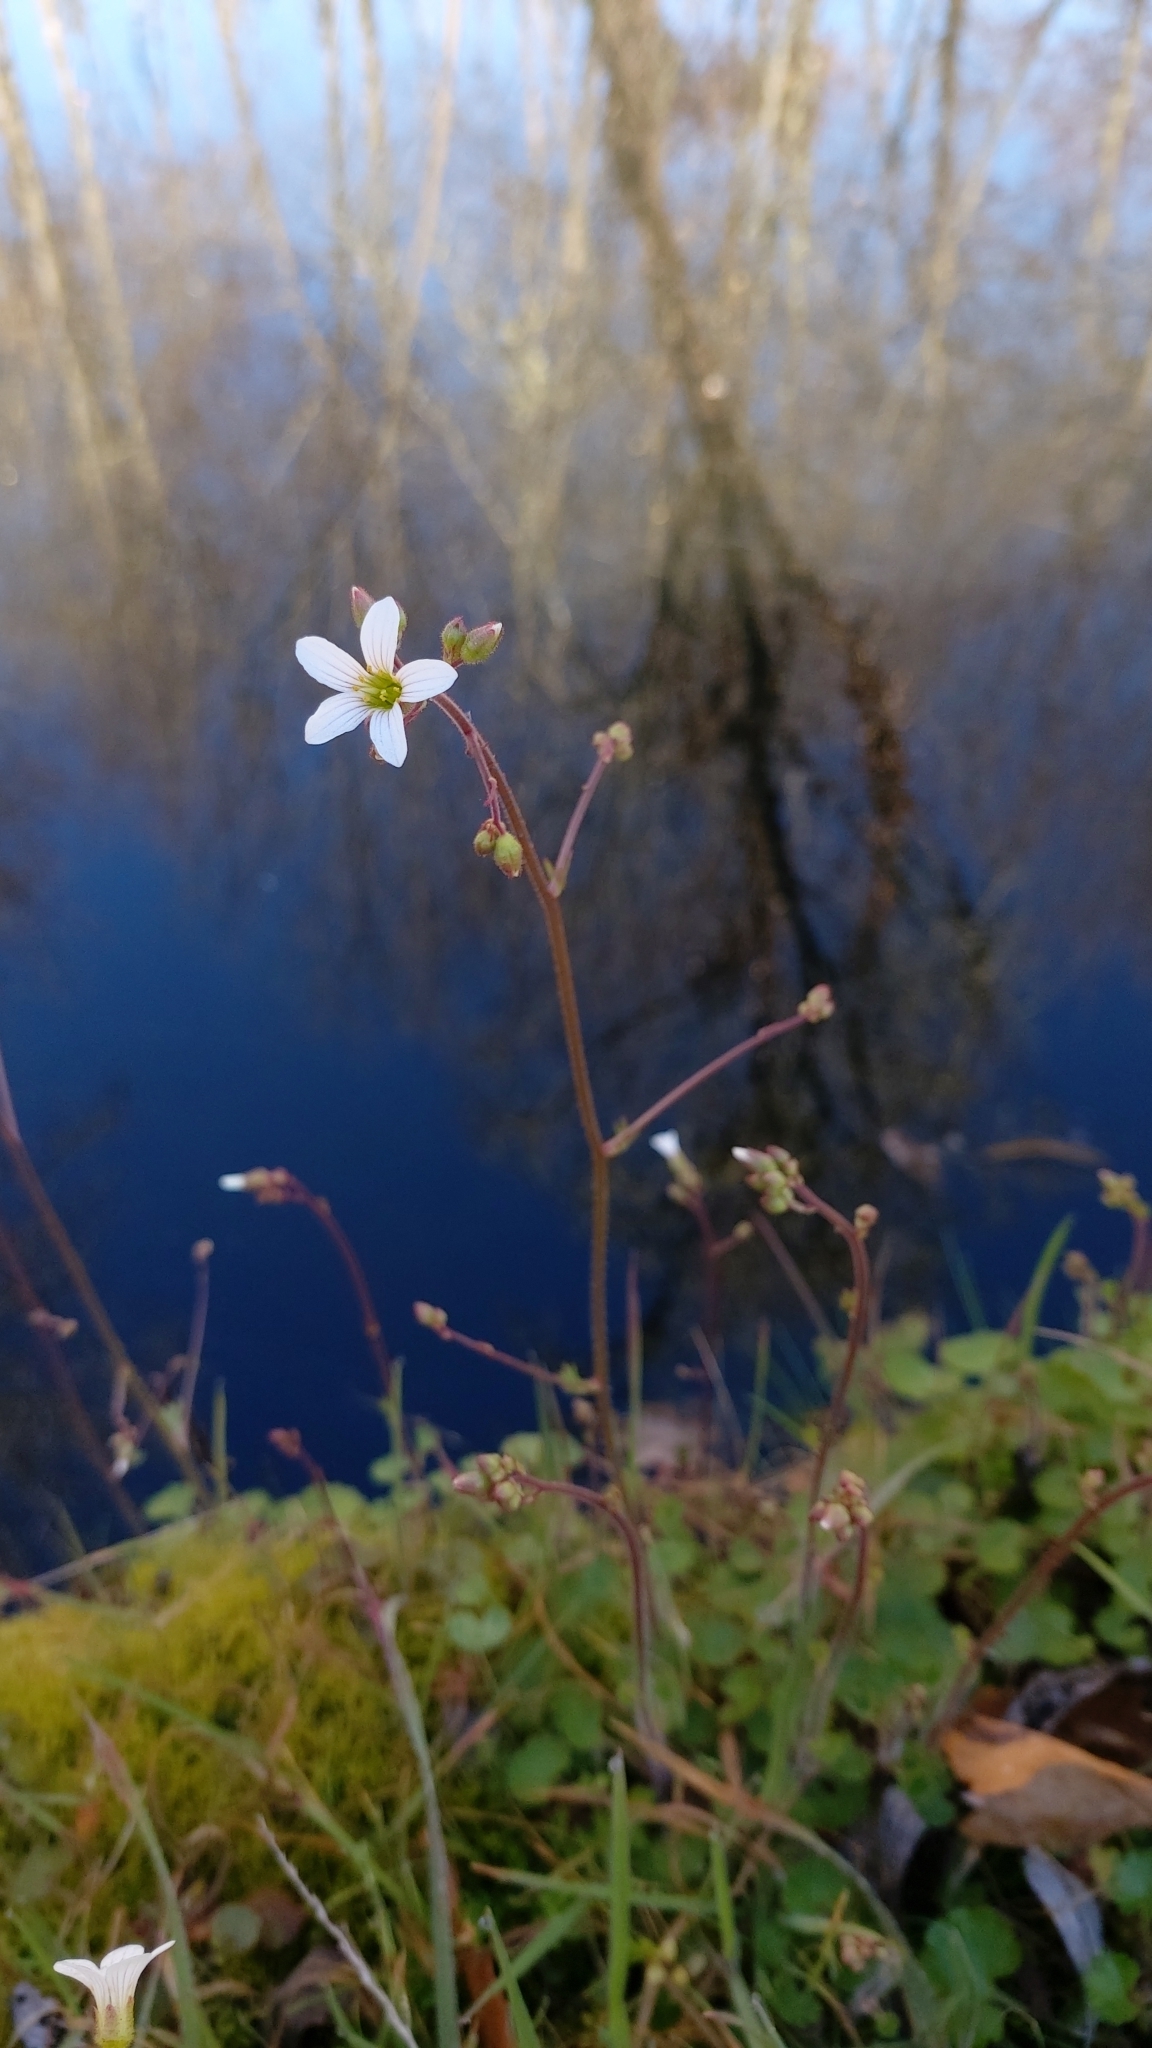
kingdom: Plantae
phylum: Tracheophyta
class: Magnoliopsida
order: Saxifragales
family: Saxifragaceae
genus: Saxifraga
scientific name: Saxifraga granulata
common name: Meadow saxifrage
